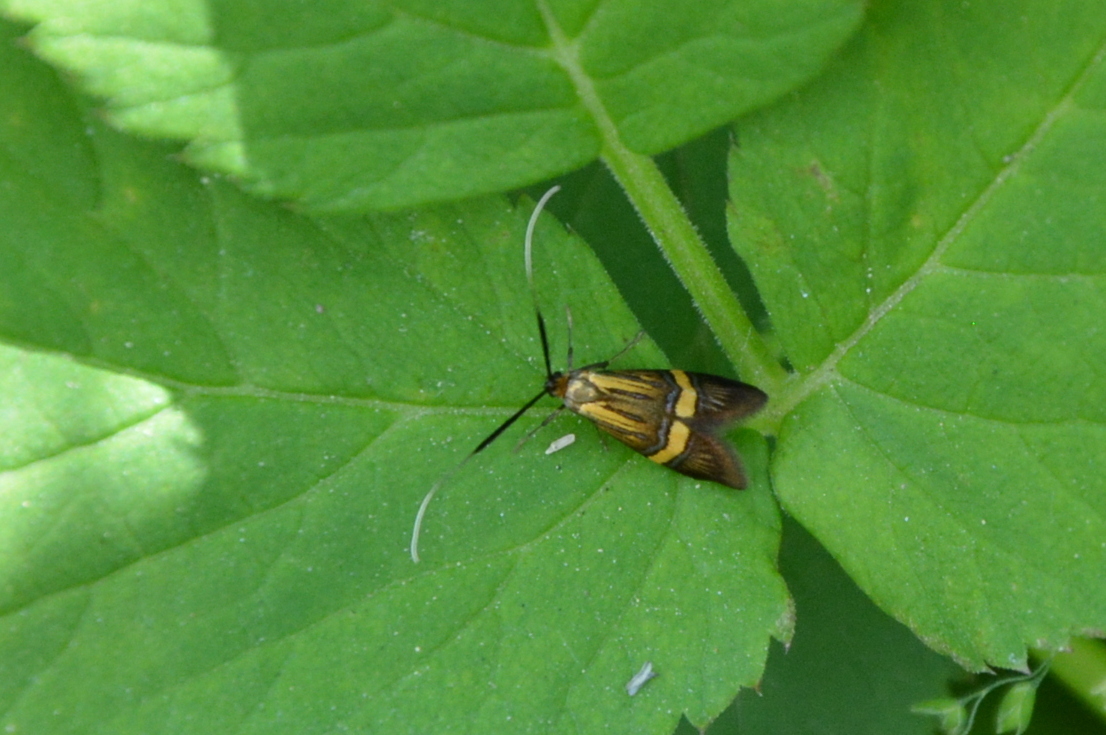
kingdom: Animalia
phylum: Arthropoda
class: Insecta
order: Lepidoptera
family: Adelidae
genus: Nemophora
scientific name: Nemophora degeerella
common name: Yellow-barred long-horn
